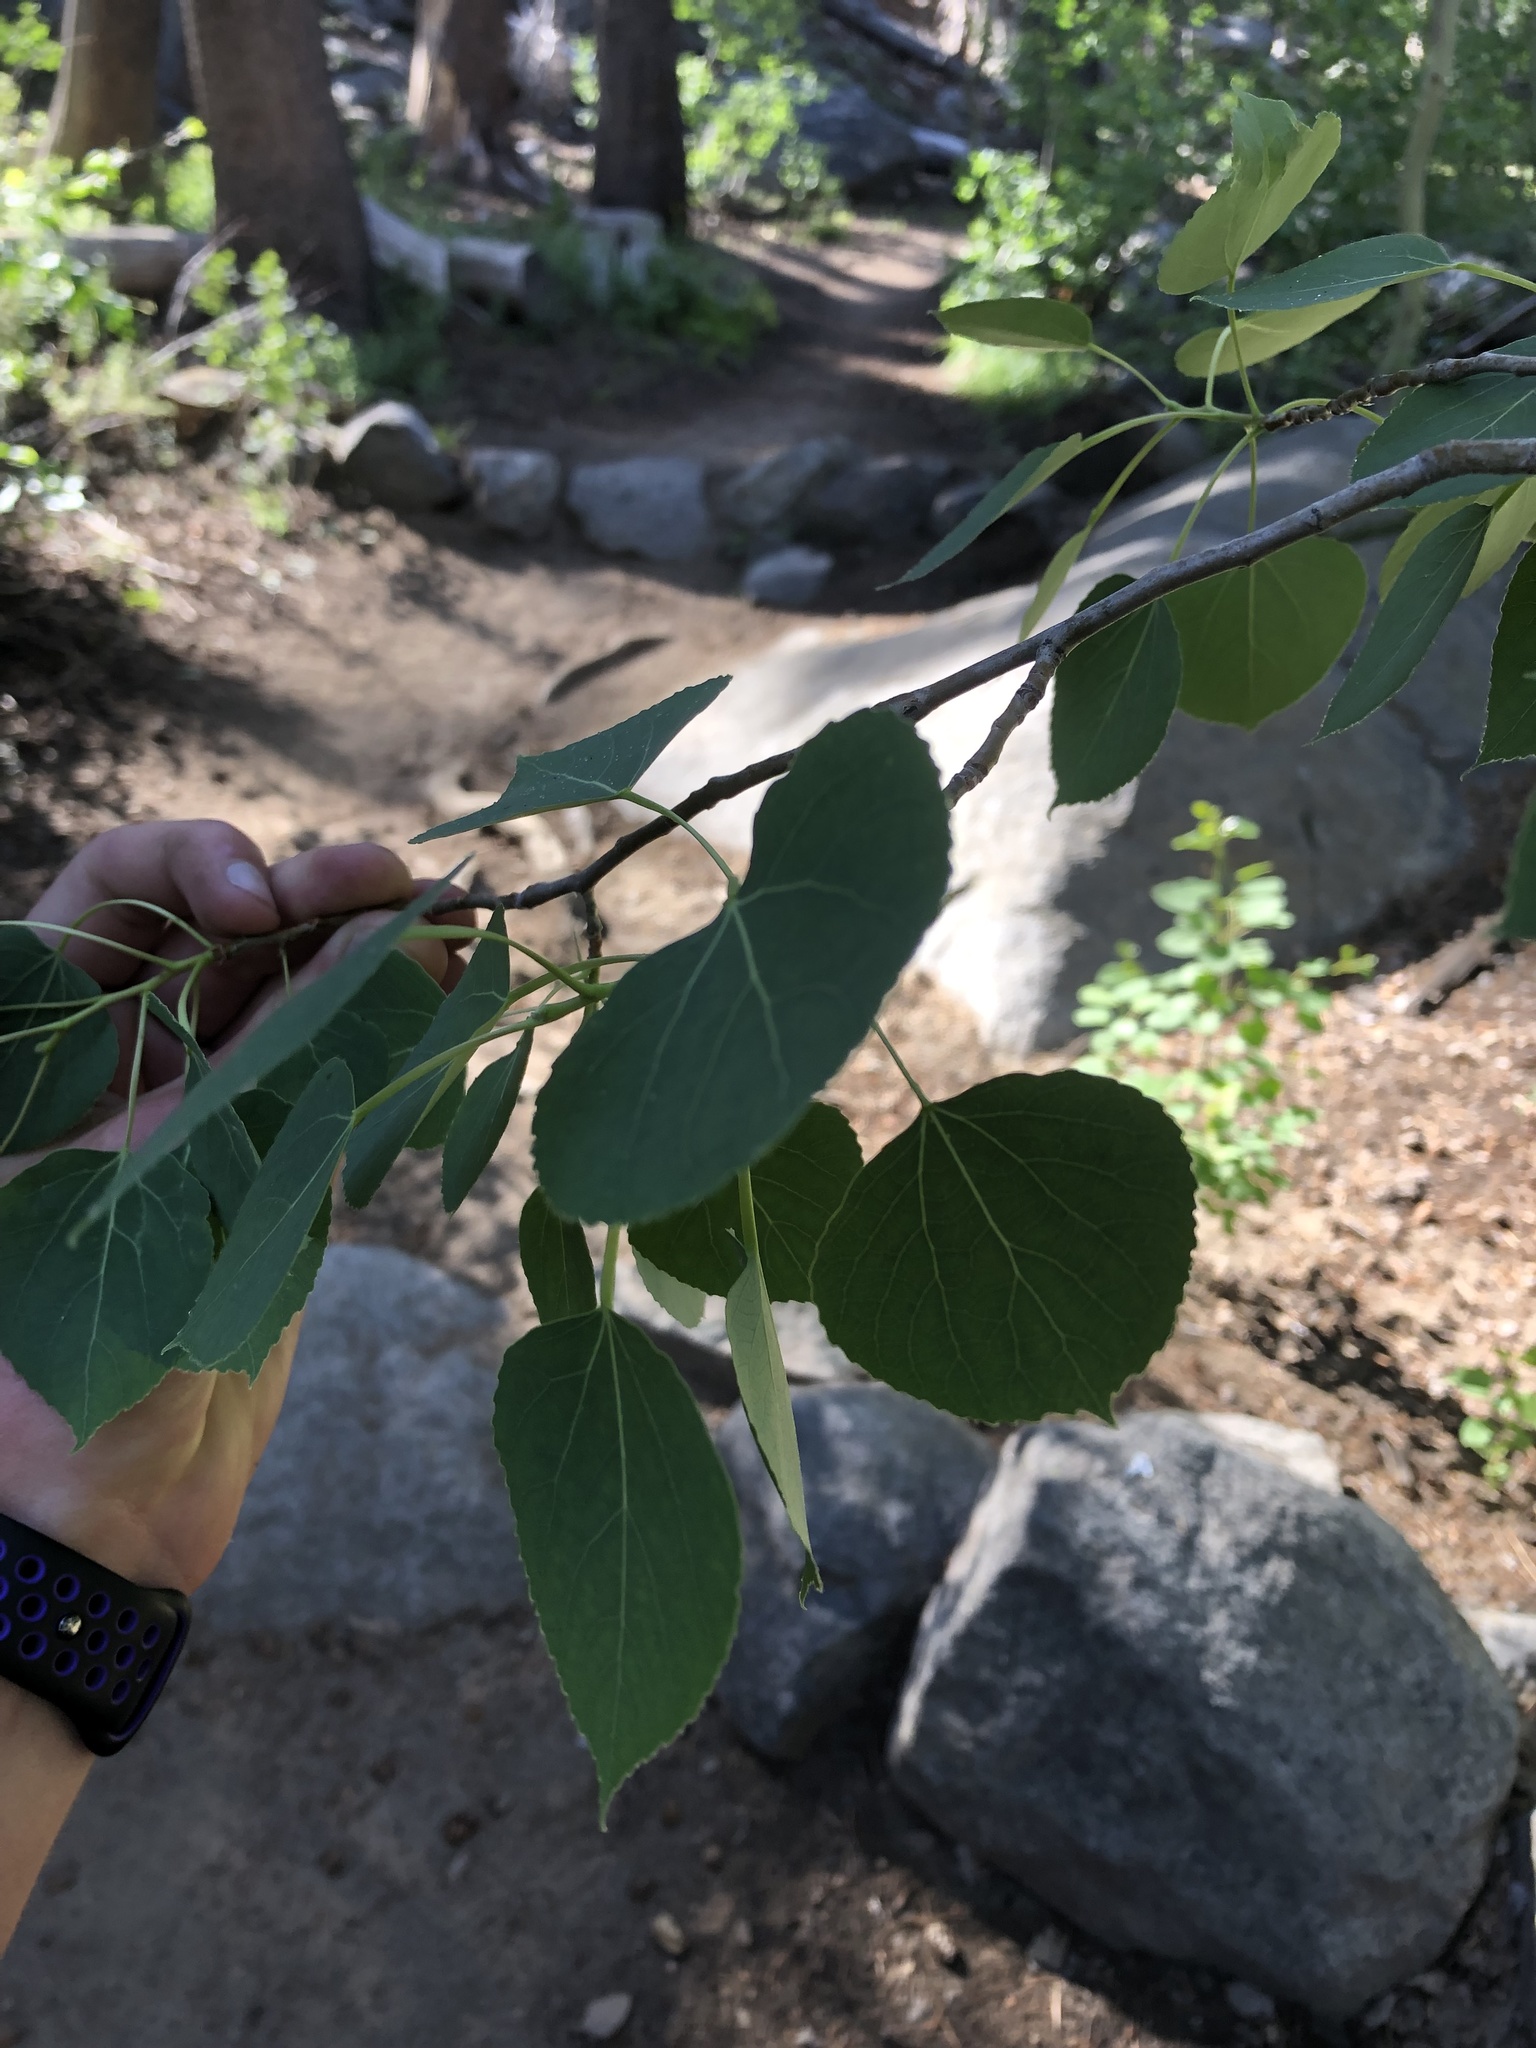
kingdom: Plantae
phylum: Tracheophyta
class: Magnoliopsida
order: Malpighiales
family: Salicaceae
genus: Populus
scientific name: Populus tremuloides
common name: Quaking aspen
